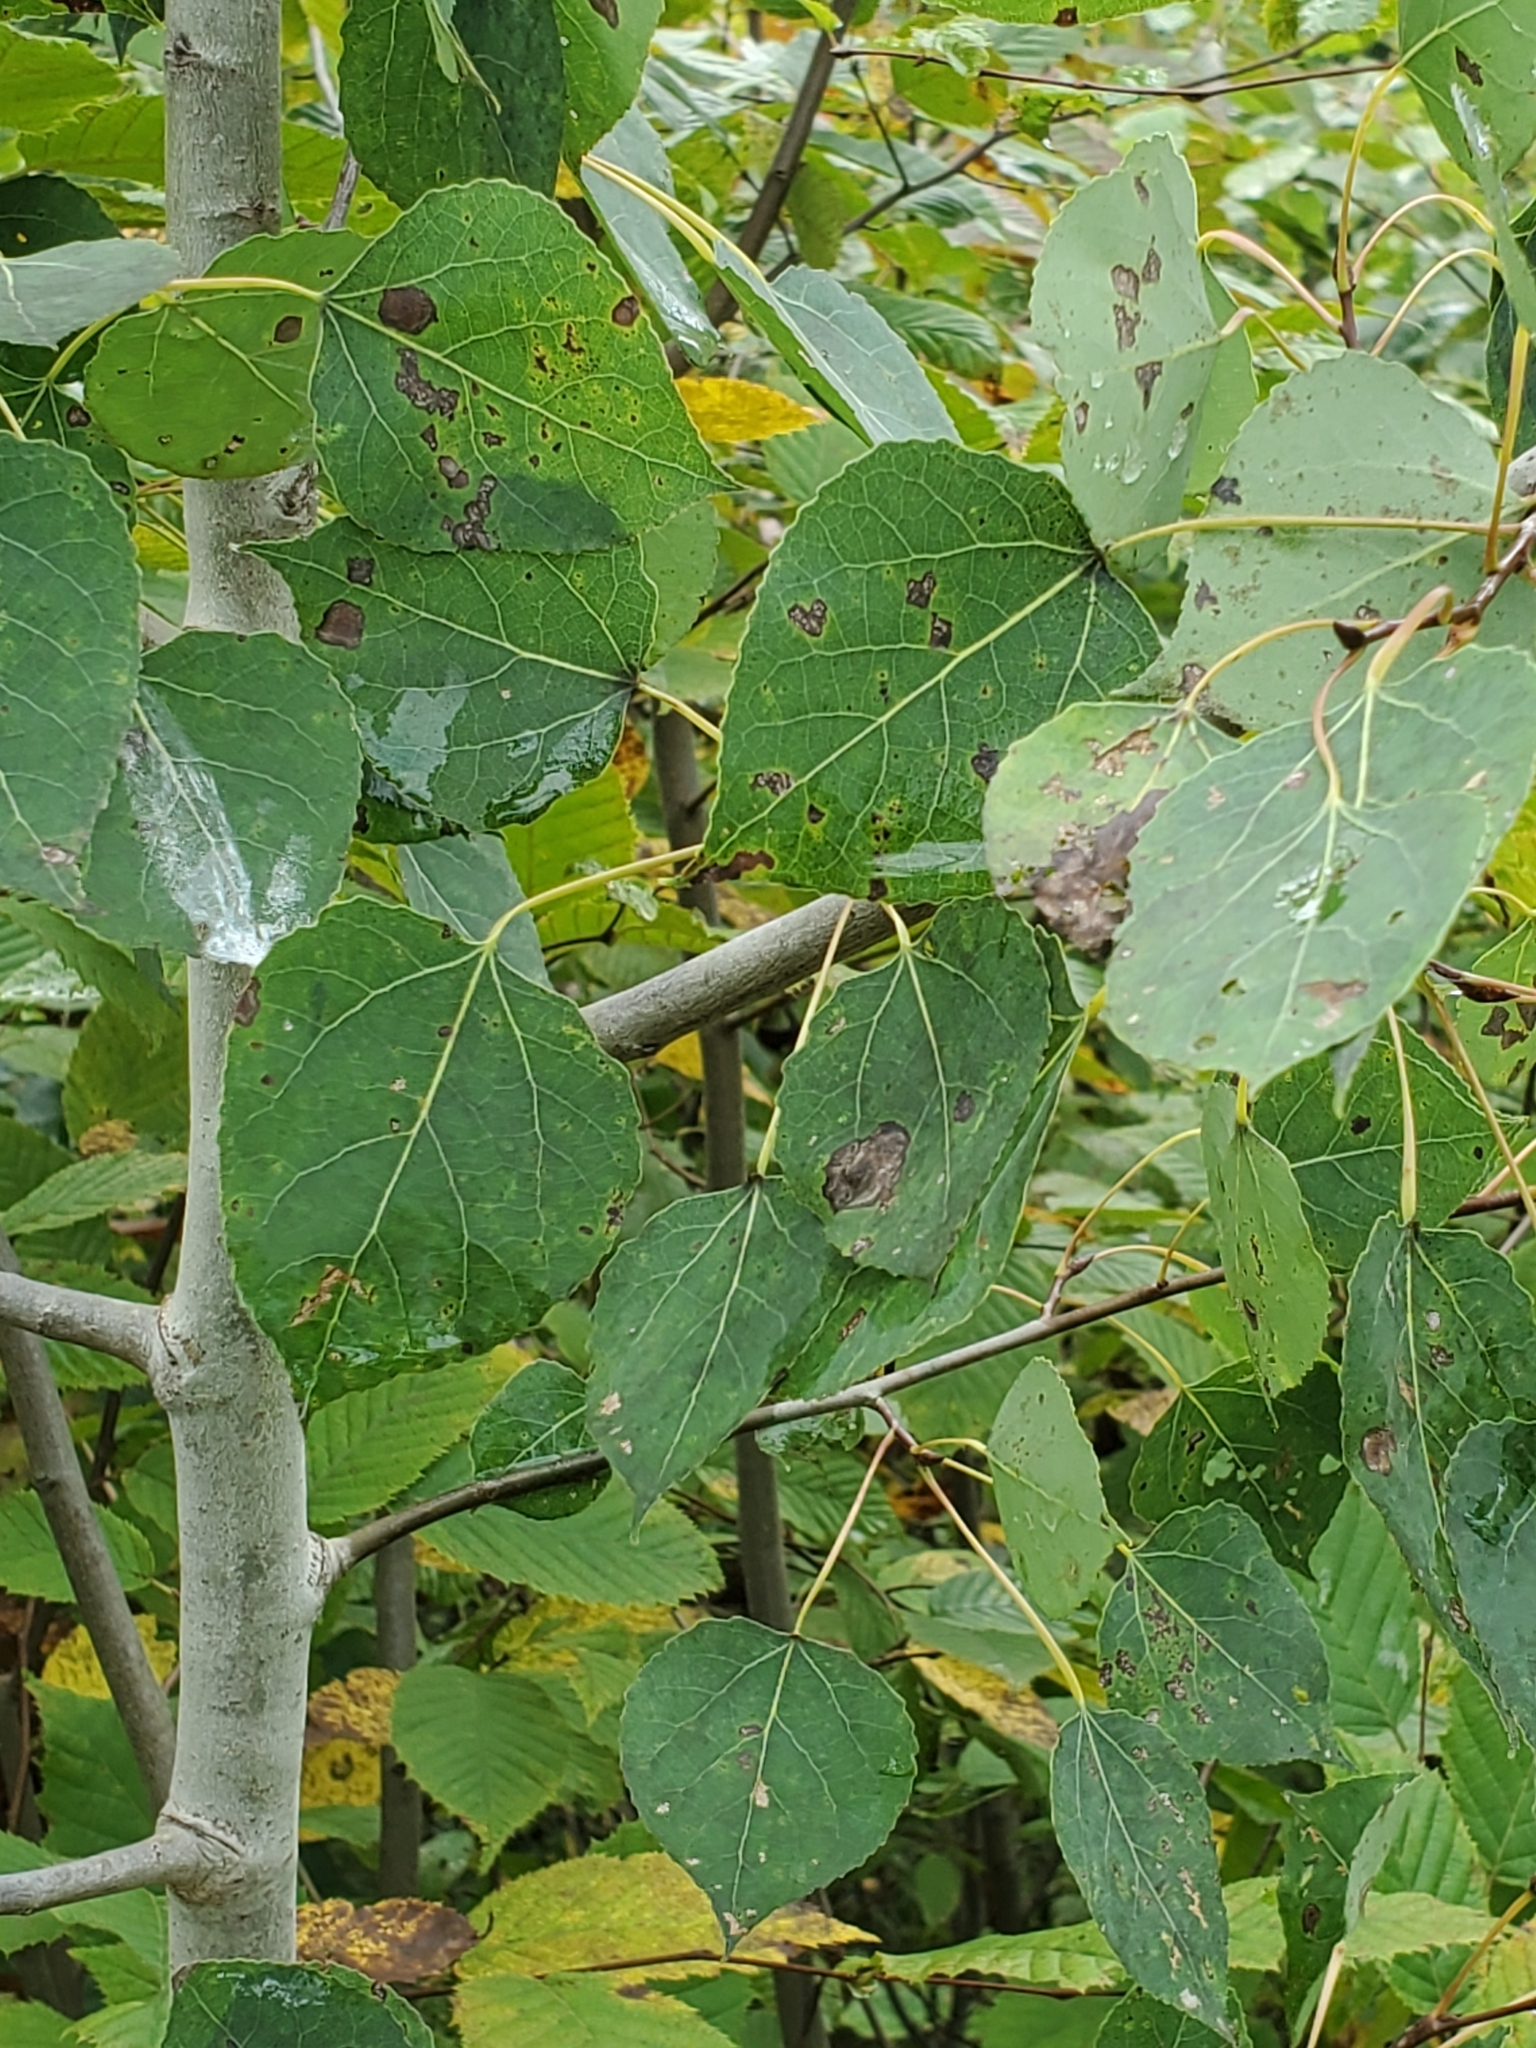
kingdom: Plantae
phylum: Tracheophyta
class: Magnoliopsida
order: Malpighiales
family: Salicaceae
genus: Populus
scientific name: Populus tremuloides
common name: Quaking aspen
